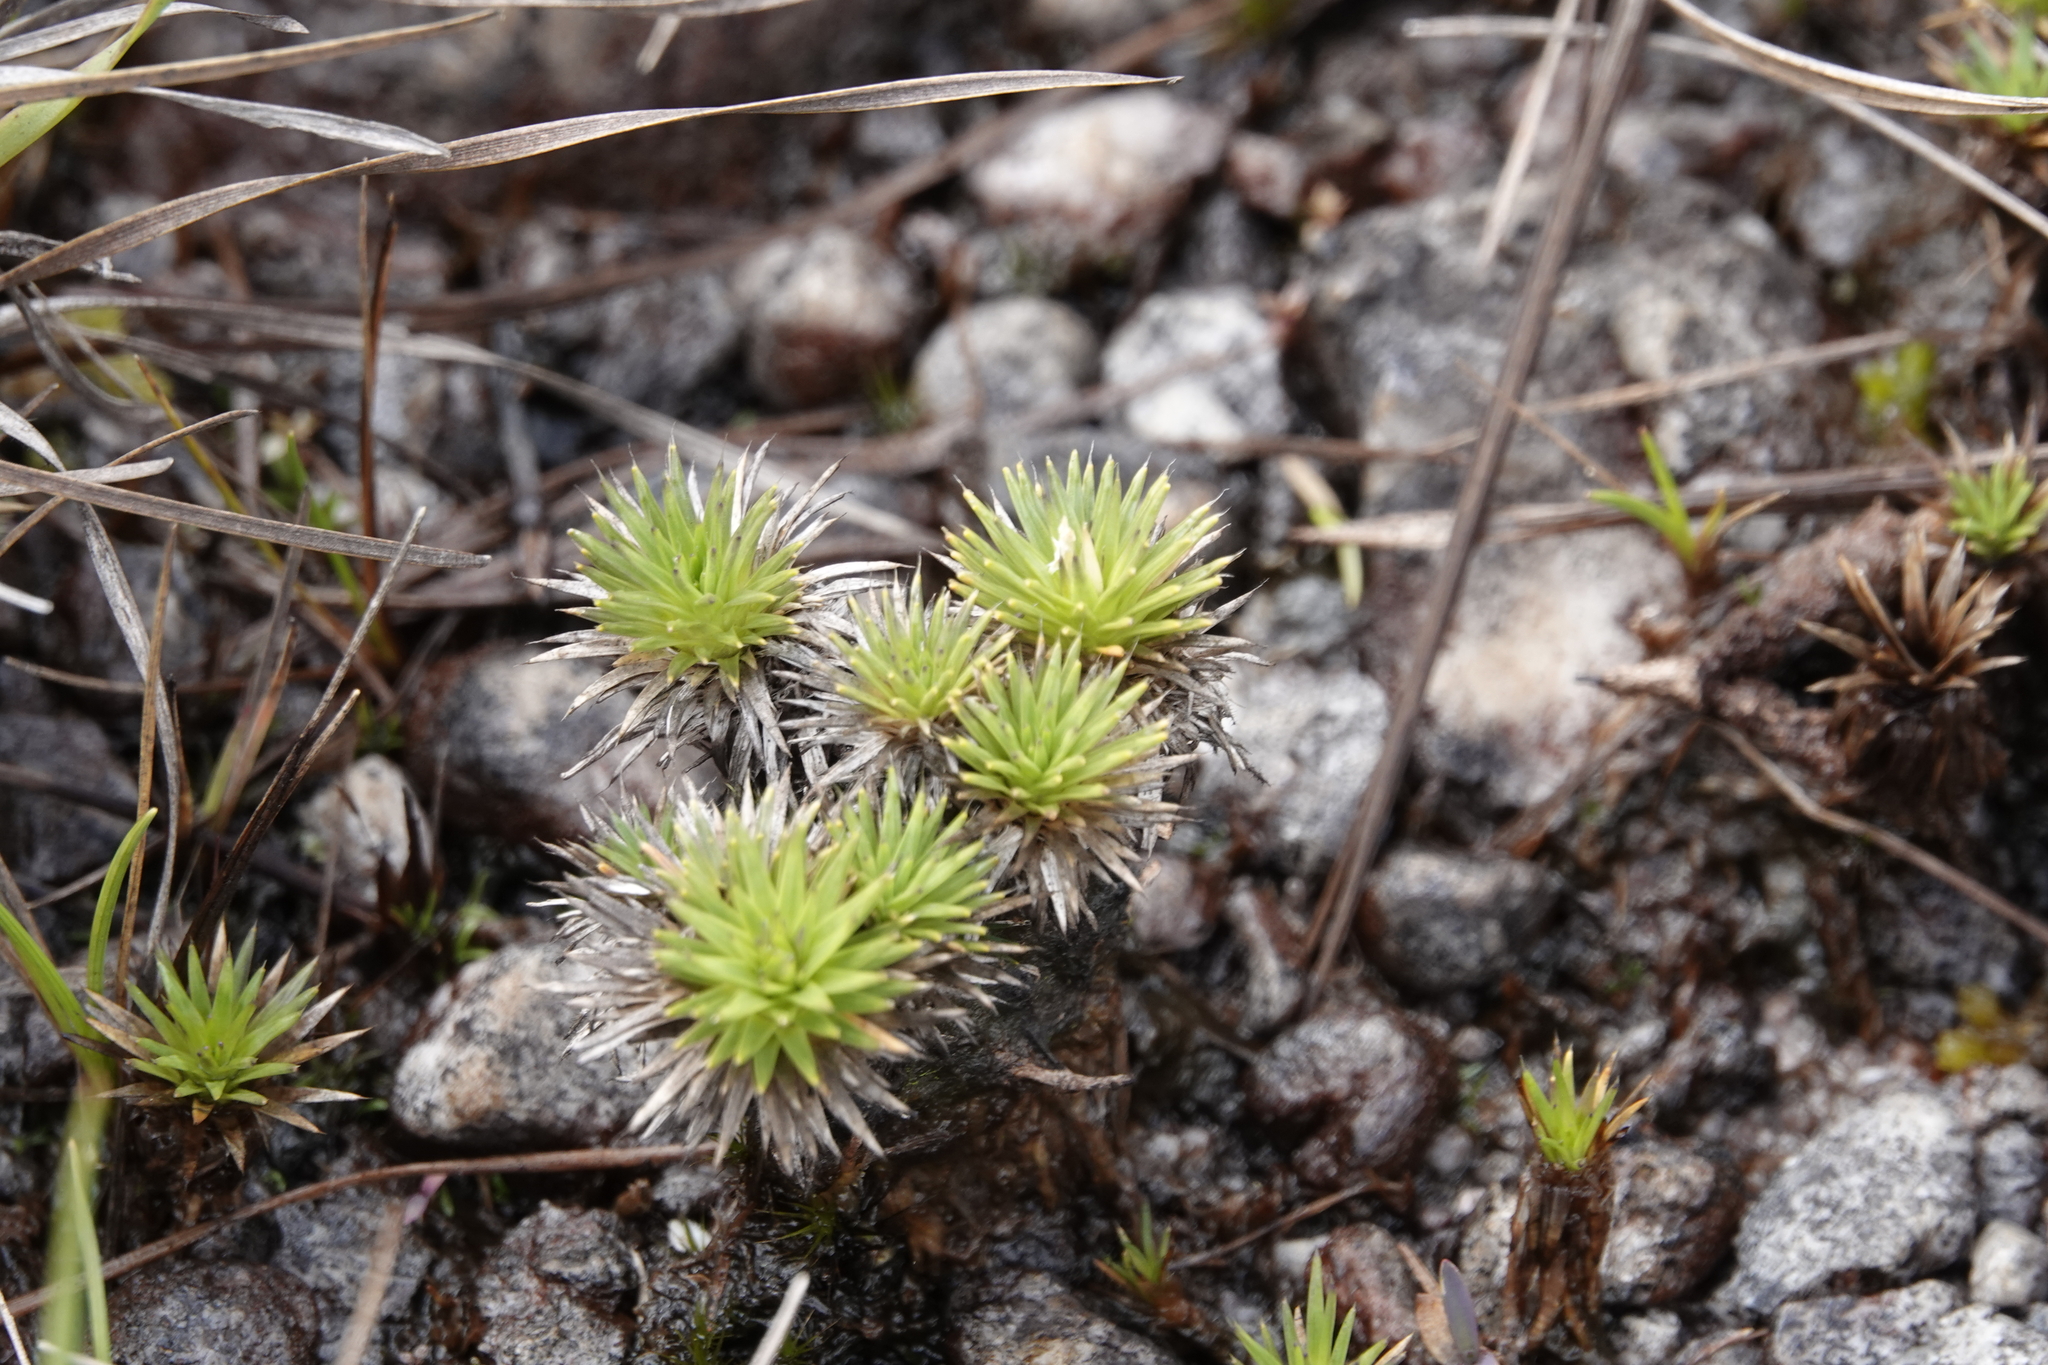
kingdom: Plantae
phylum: Tracheophyta
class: Liliopsida
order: Poales
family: Xyridaceae
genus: Abolboda
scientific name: Abolboda acaulis
